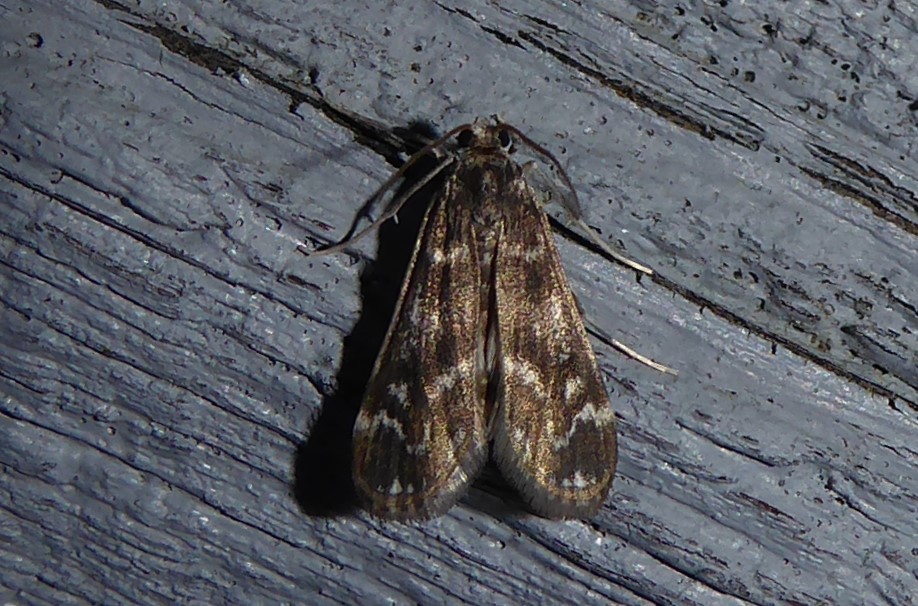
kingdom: Animalia
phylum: Arthropoda
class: Insecta
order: Lepidoptera
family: Crambidae
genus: Hygraula
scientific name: Hygraula nitens
